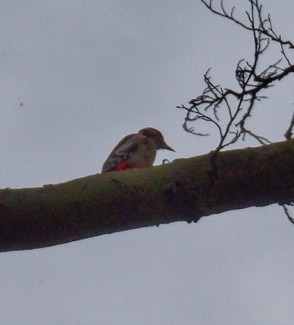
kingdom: Animalia
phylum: Chordata
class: Aves
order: Piciformes
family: Picidae
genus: Dendrocopos
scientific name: Dendrocopos major
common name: Great spotted woodpecker
